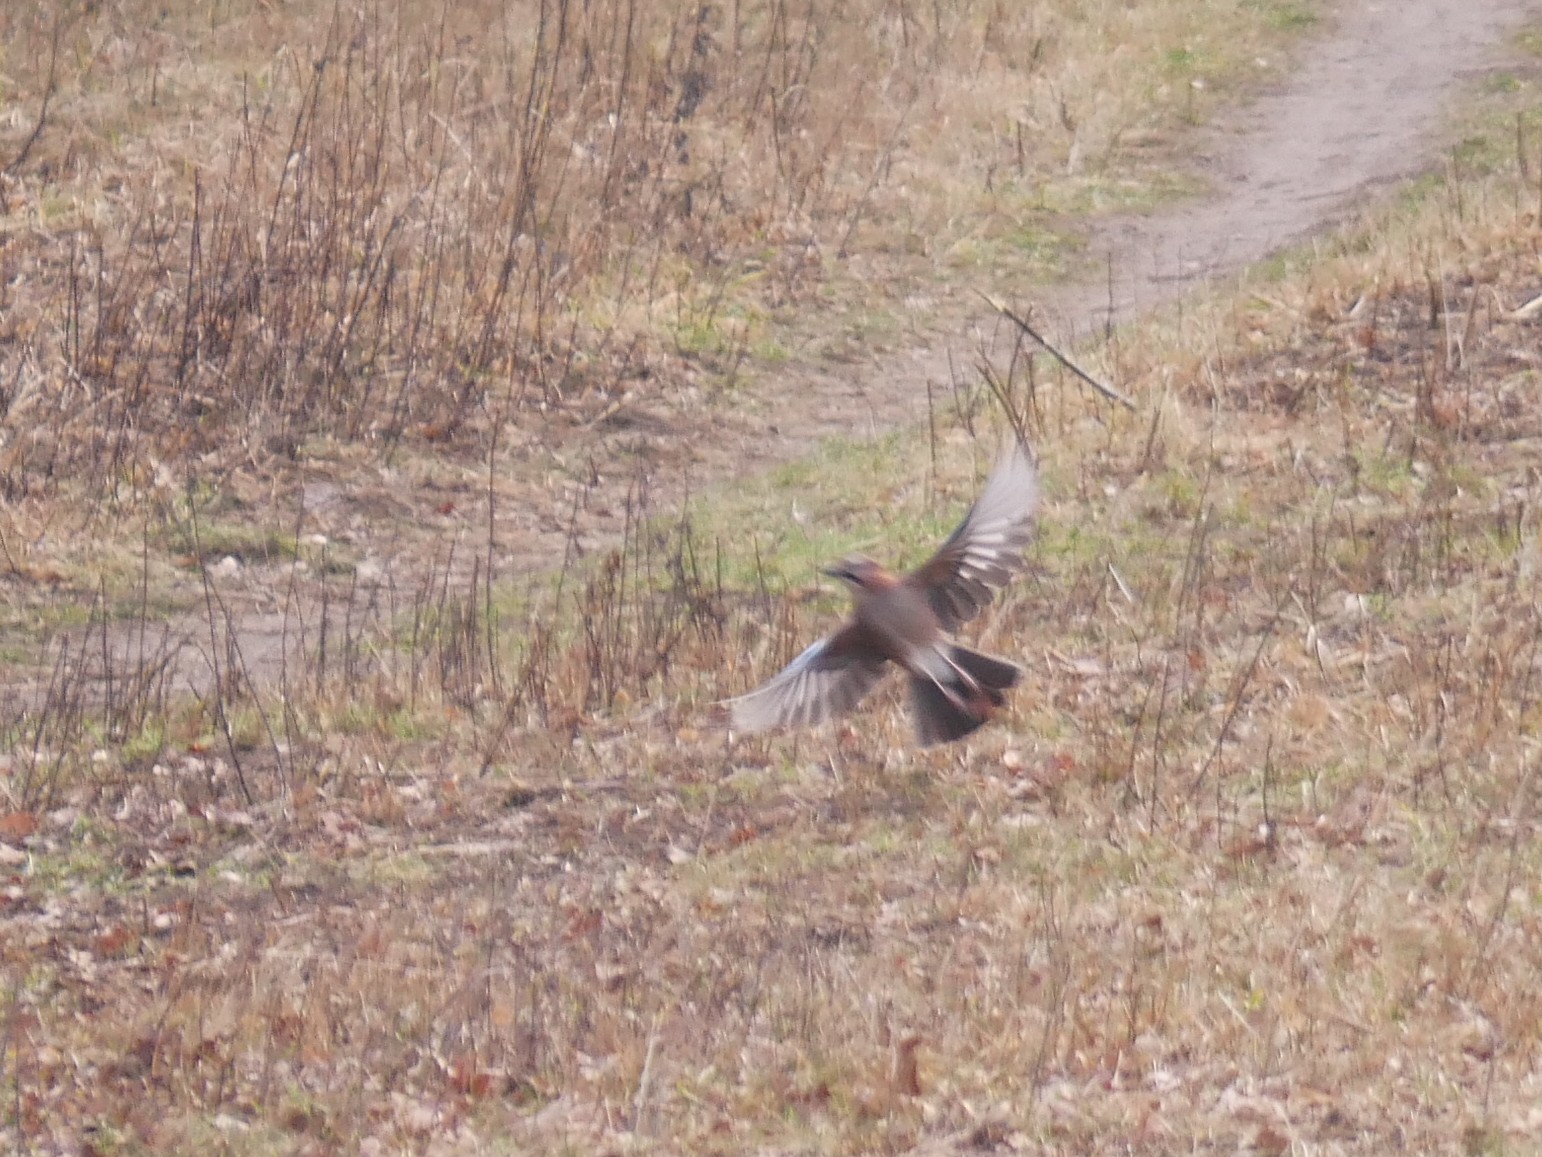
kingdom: Animalia
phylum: Chordata
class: Aves
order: Passeriformes
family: Corvidae
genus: Garrulus
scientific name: Garrulus glandarius
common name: Eurasian jay
